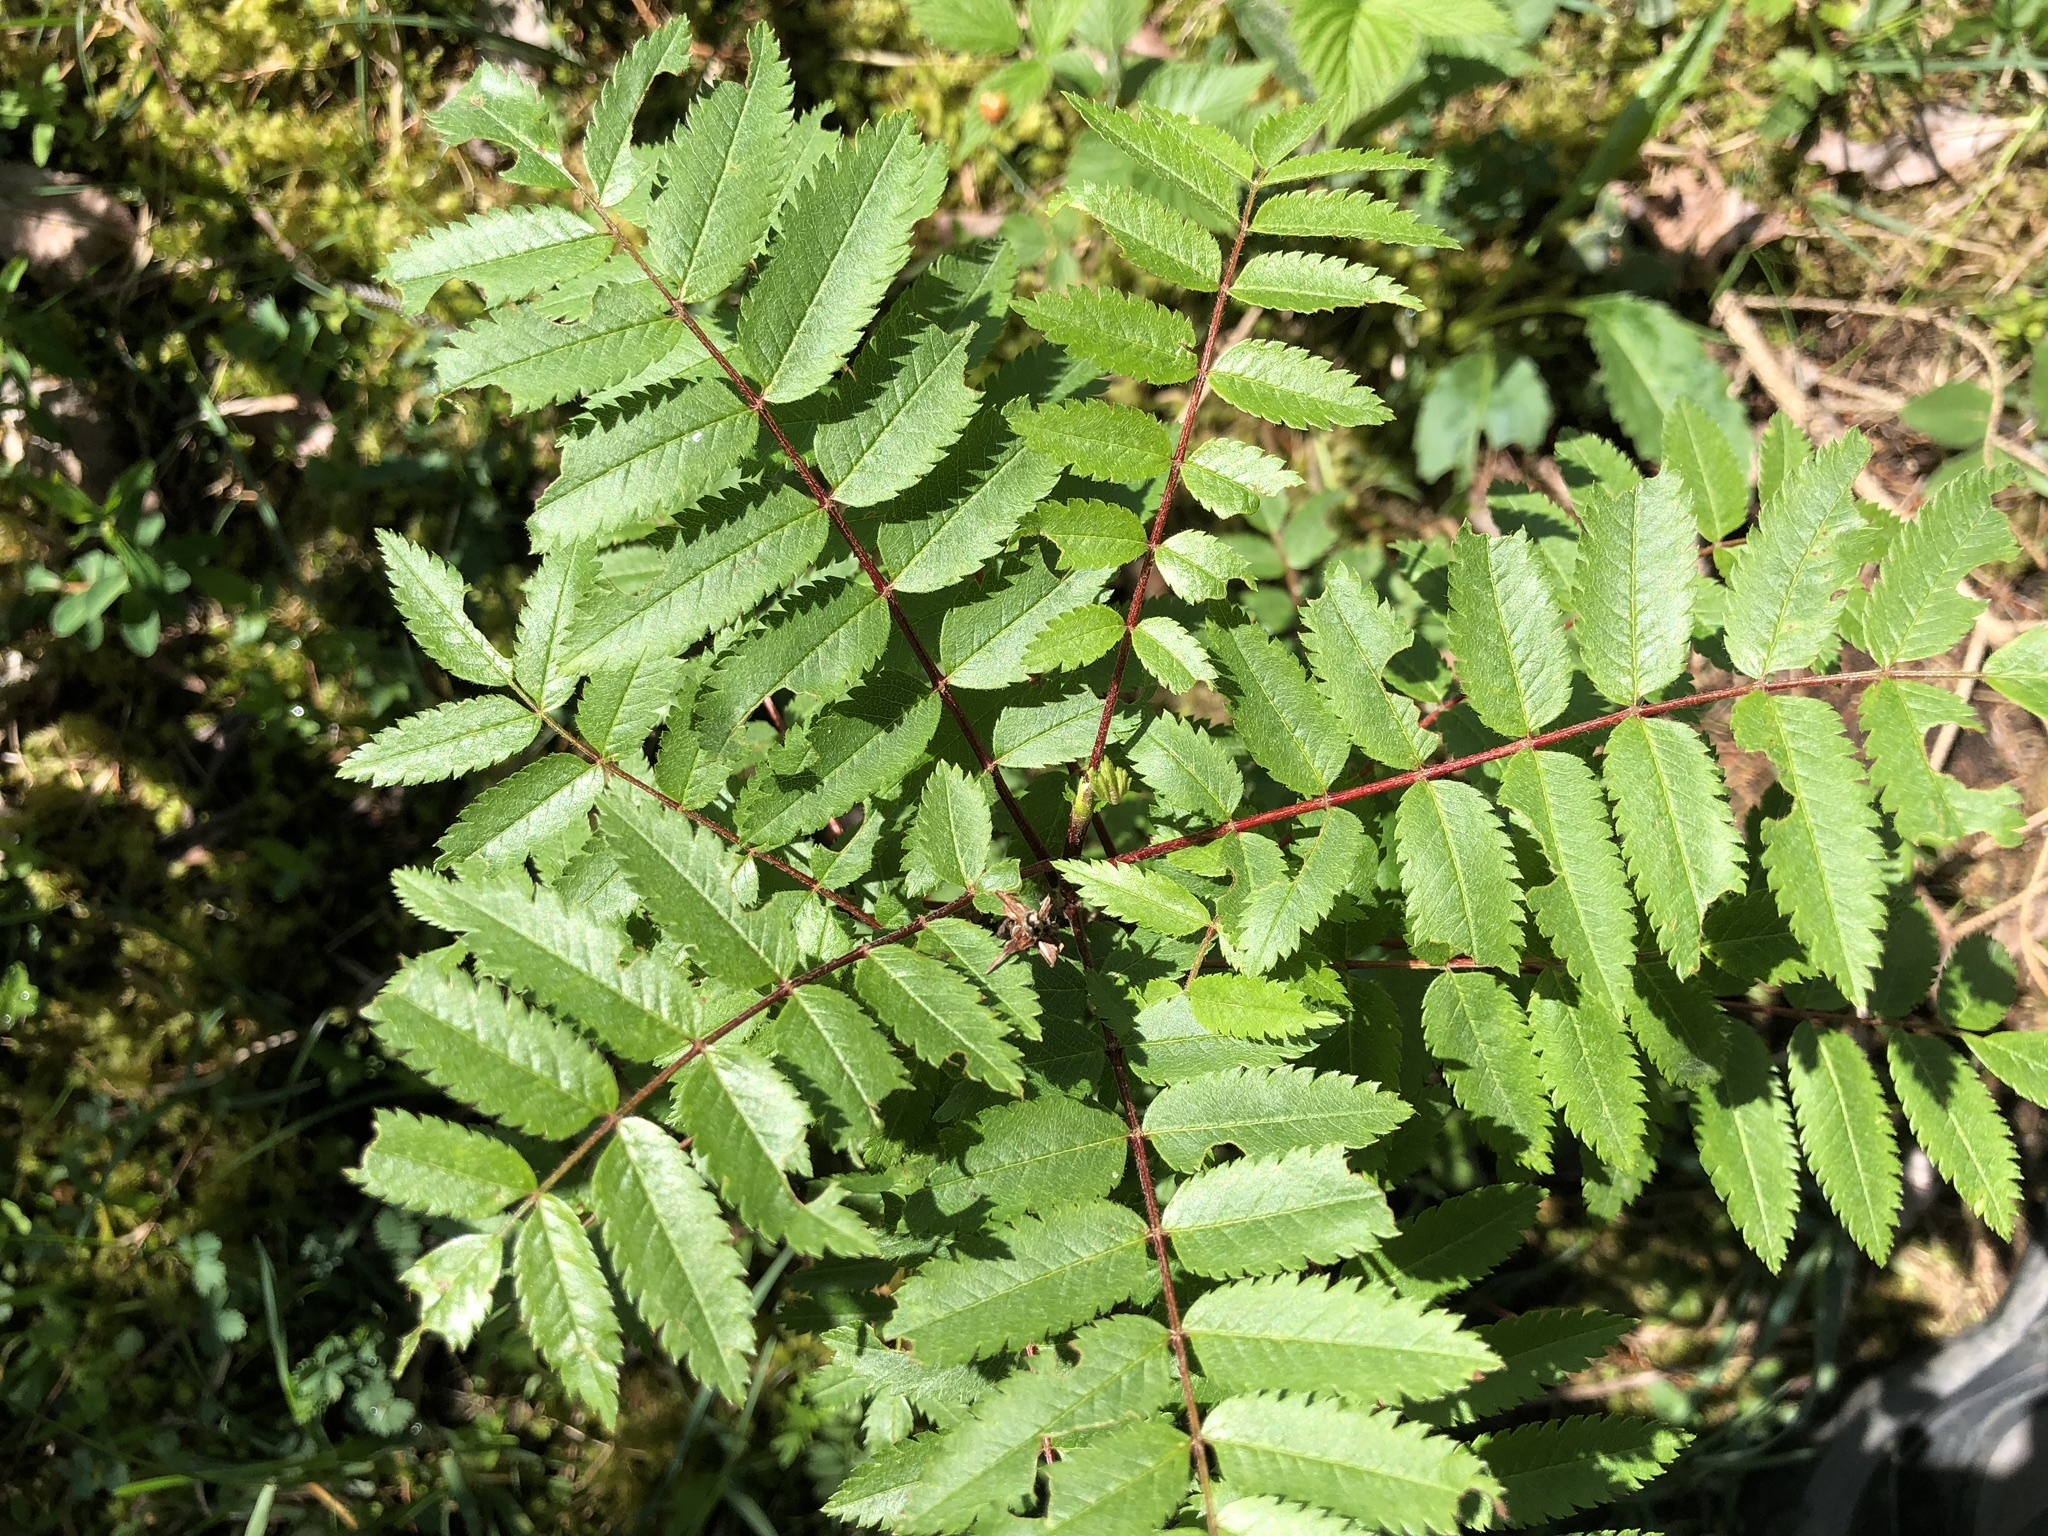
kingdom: Plantae
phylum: Tracheophyta
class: Magnoliopsida
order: Rosales
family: Rosaceae
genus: Sorbus
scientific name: Sorbus aucuparia
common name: Rowan
